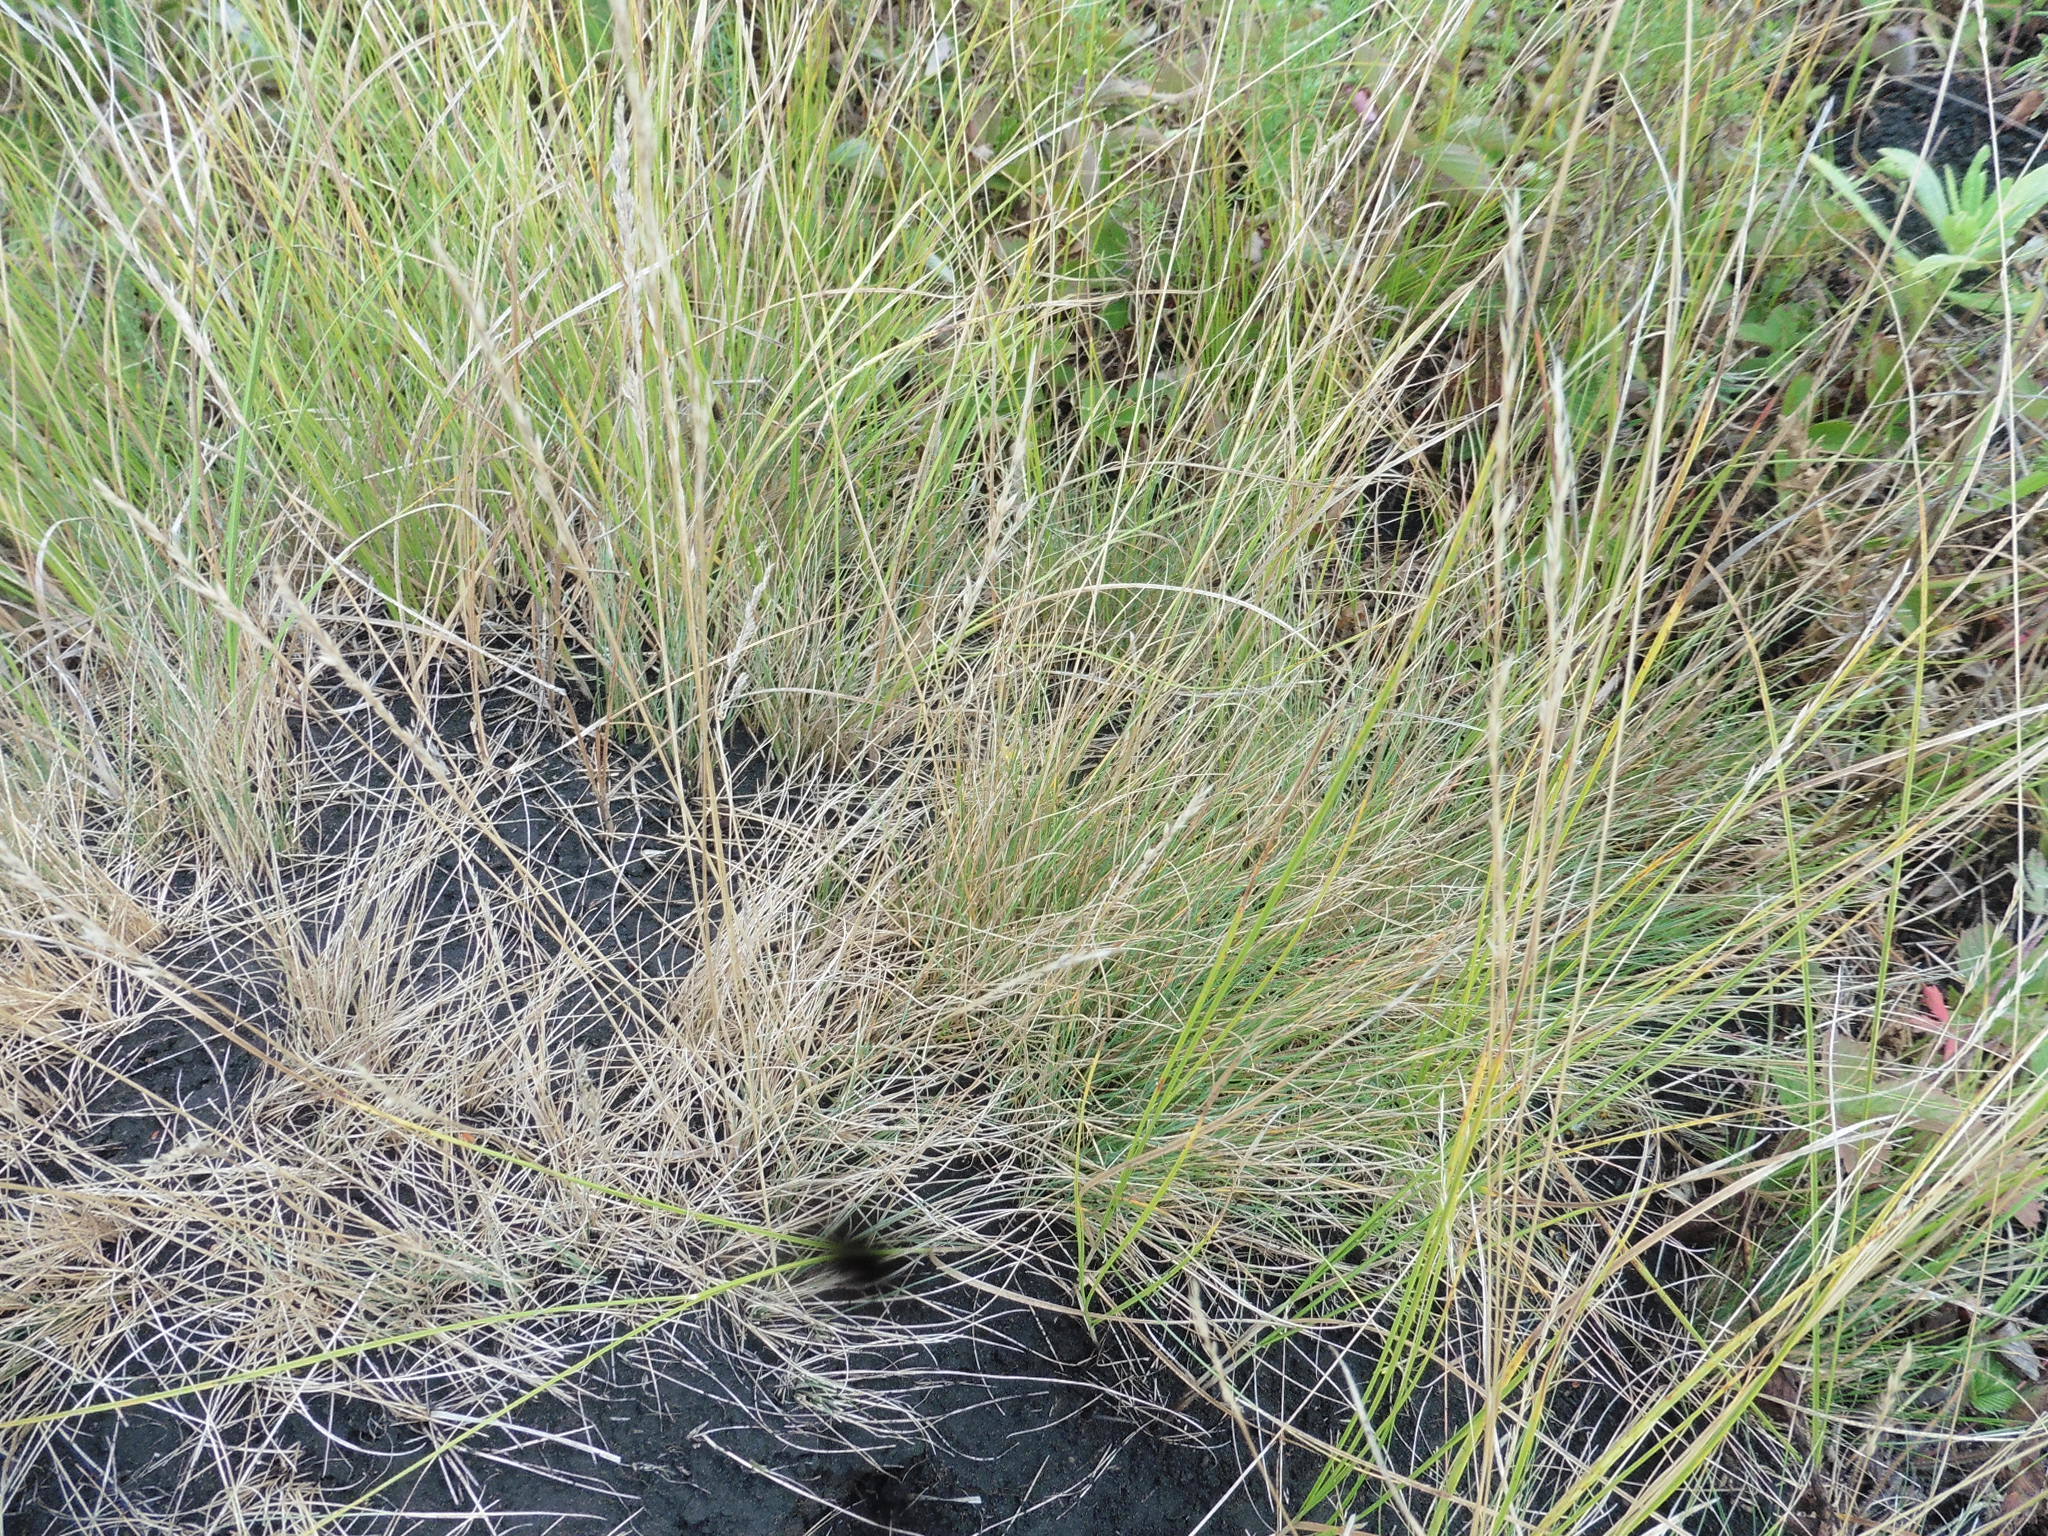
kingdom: Plantae
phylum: Tracheophyta
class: Liliopsida
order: Poales
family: Poaceae
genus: Festuca
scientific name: Festuca valesiaca
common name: Volga fescue
